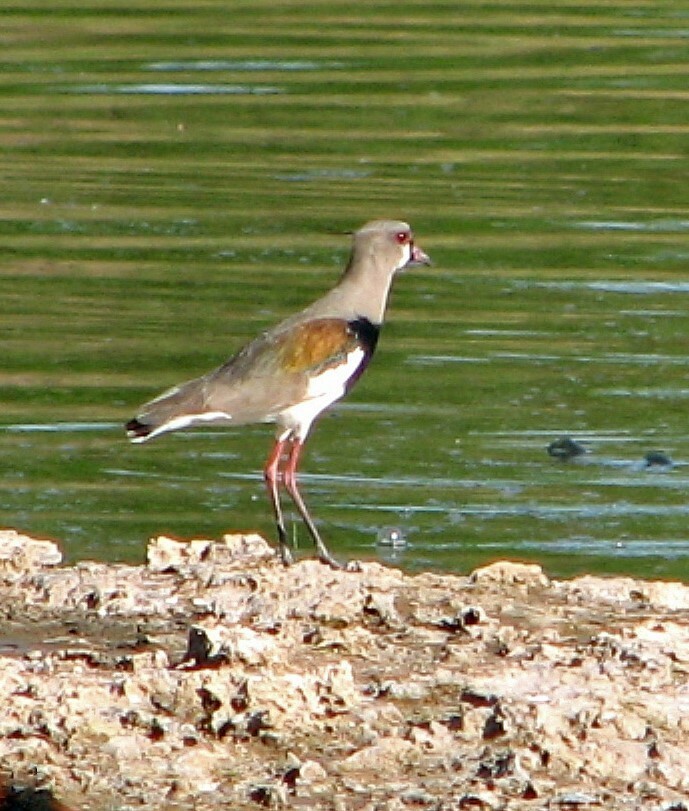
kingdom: Animalia
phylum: Chordata
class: Aves
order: Charadriiformes
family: Charadriidae
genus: Vanellus
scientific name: Vanellus chilensis
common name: Southern lapwing
